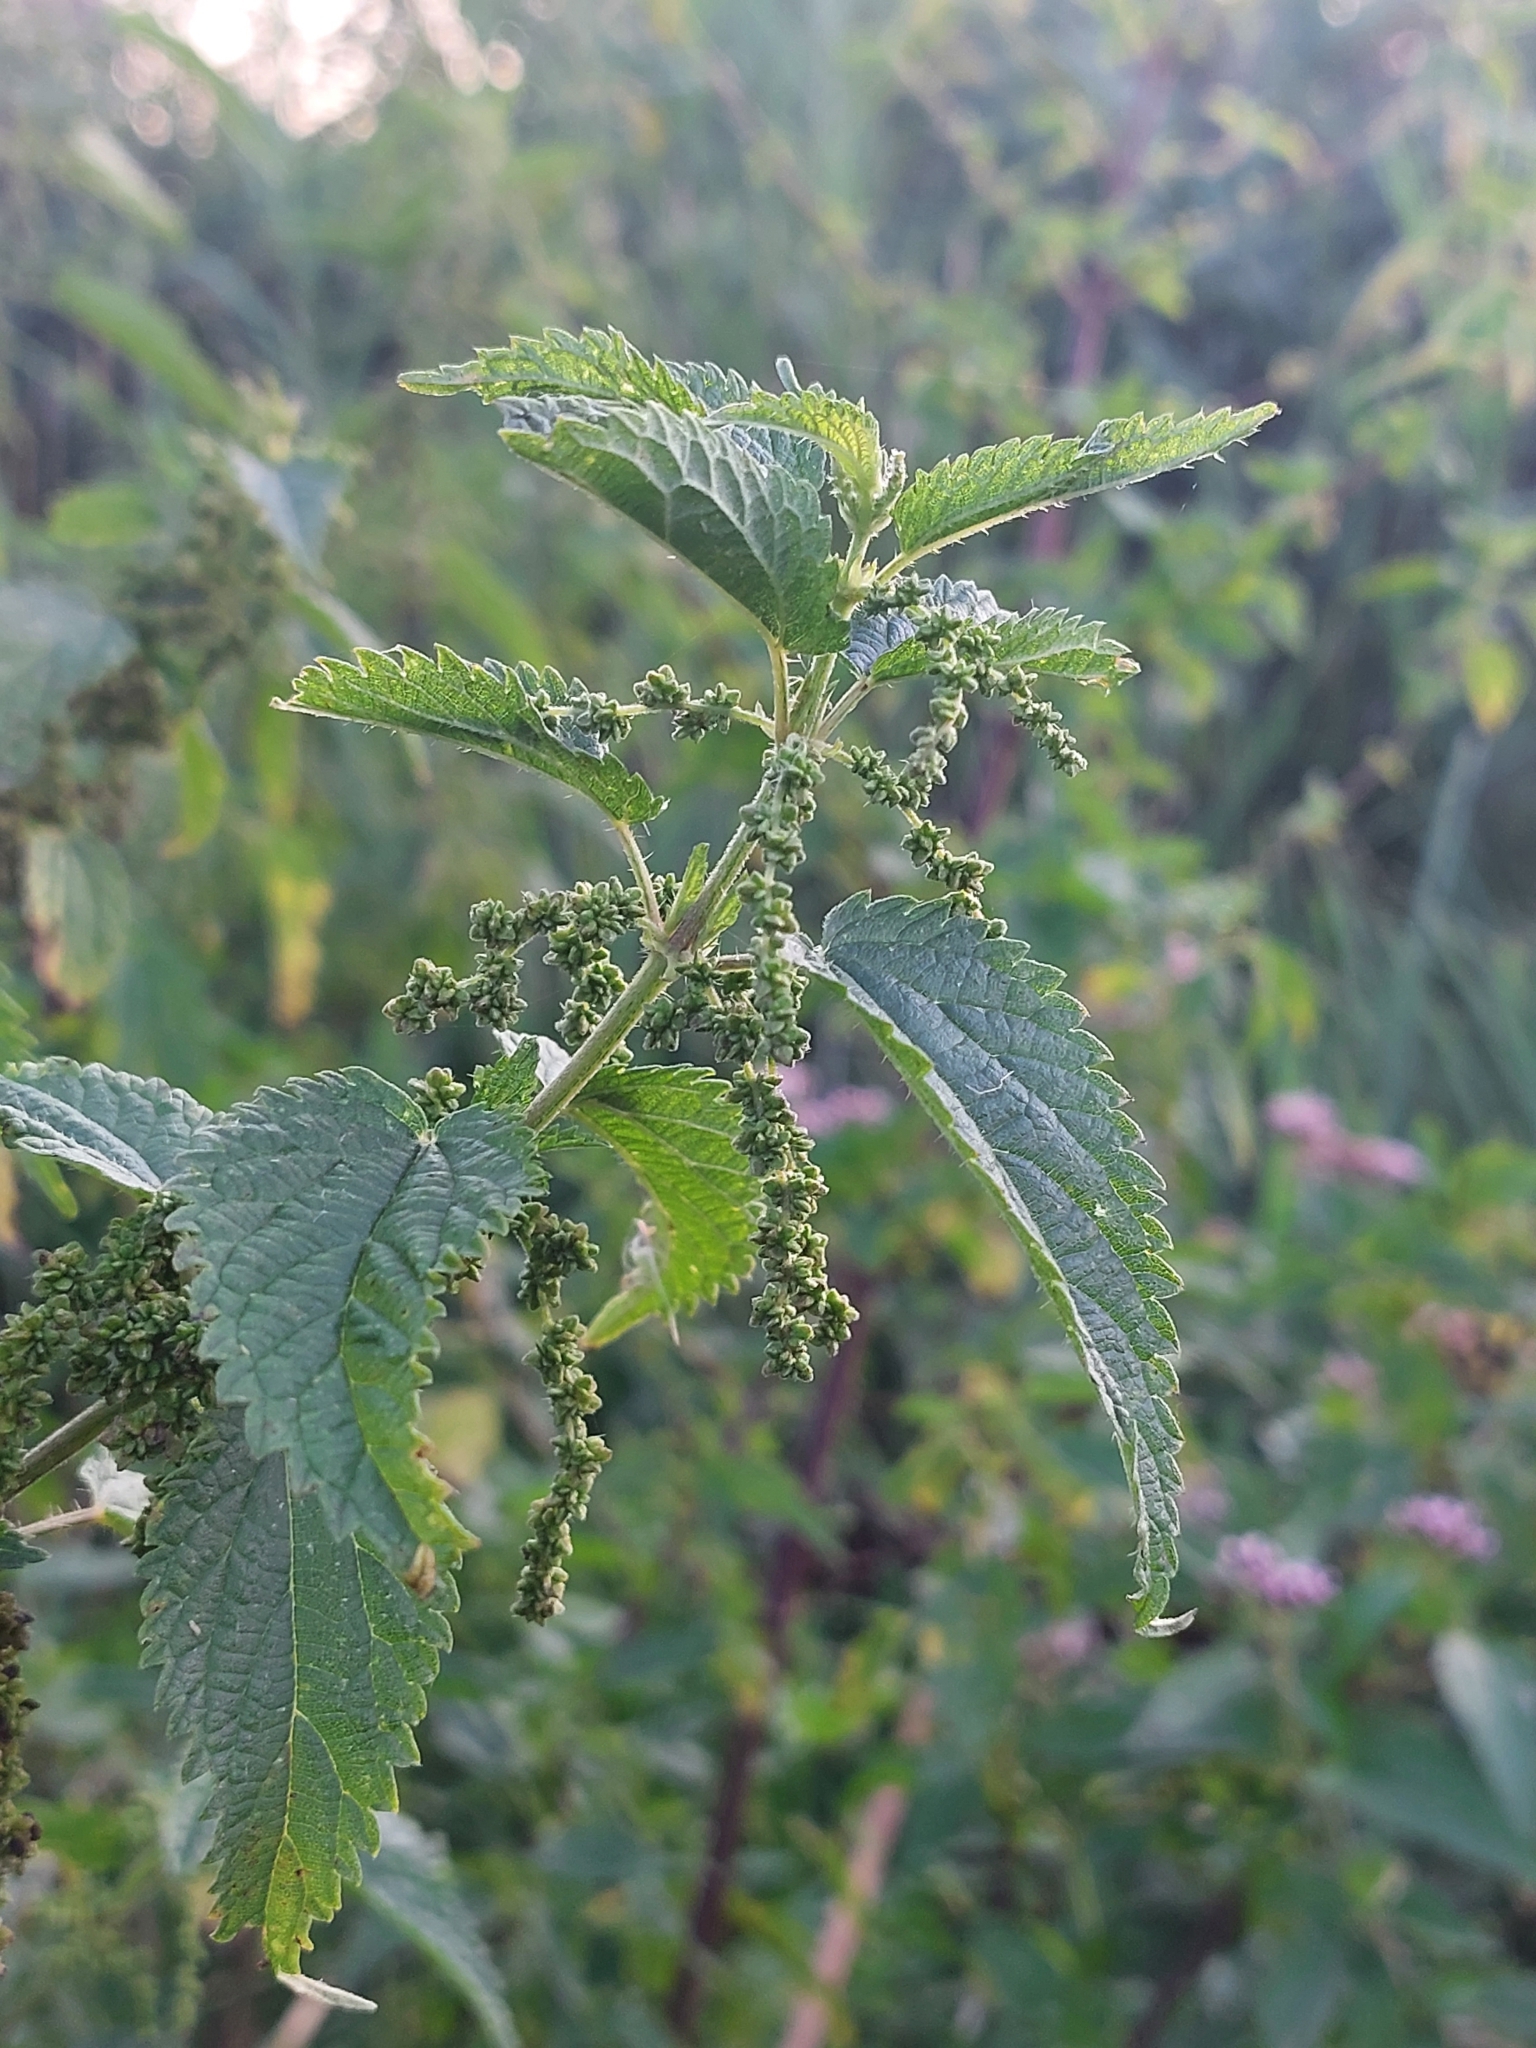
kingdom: Plantae
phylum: Tracheophyta
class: Magnoliopsida
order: Rosales
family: Urticaceae
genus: Urtica
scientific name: Urtica dioica
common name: Common nettle
